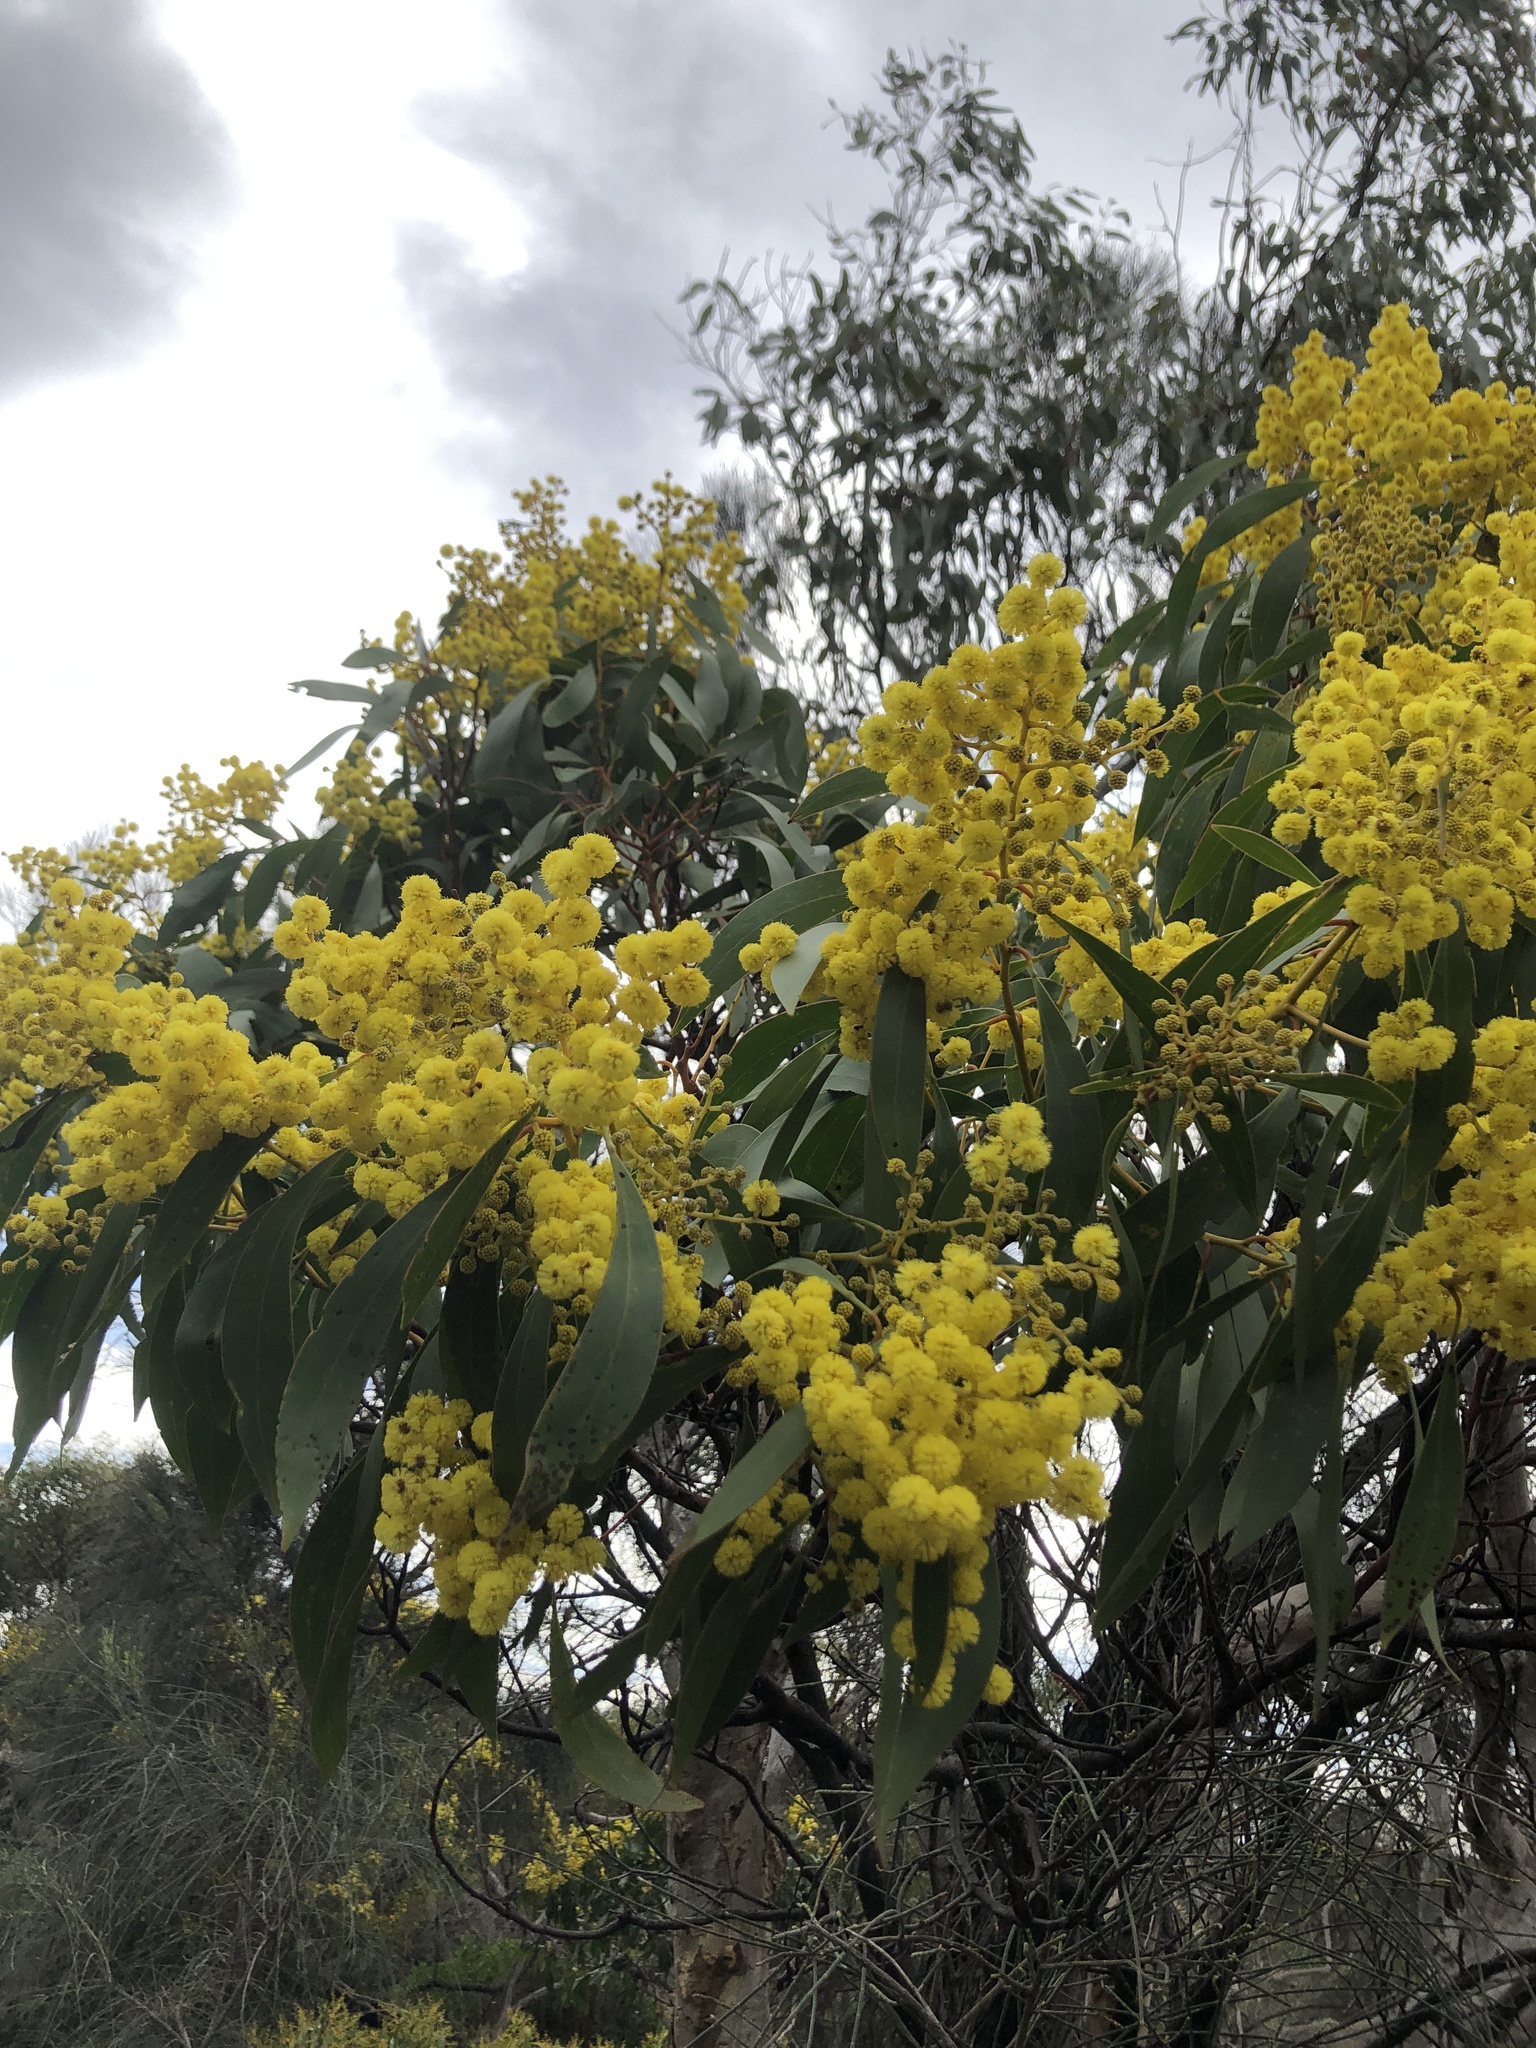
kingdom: Plantae
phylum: Tracheophyta
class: Magnoliopsida
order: Fabales
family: Fabaceae
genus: Acacia
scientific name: Acacia pycnantha
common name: Golden wattle
